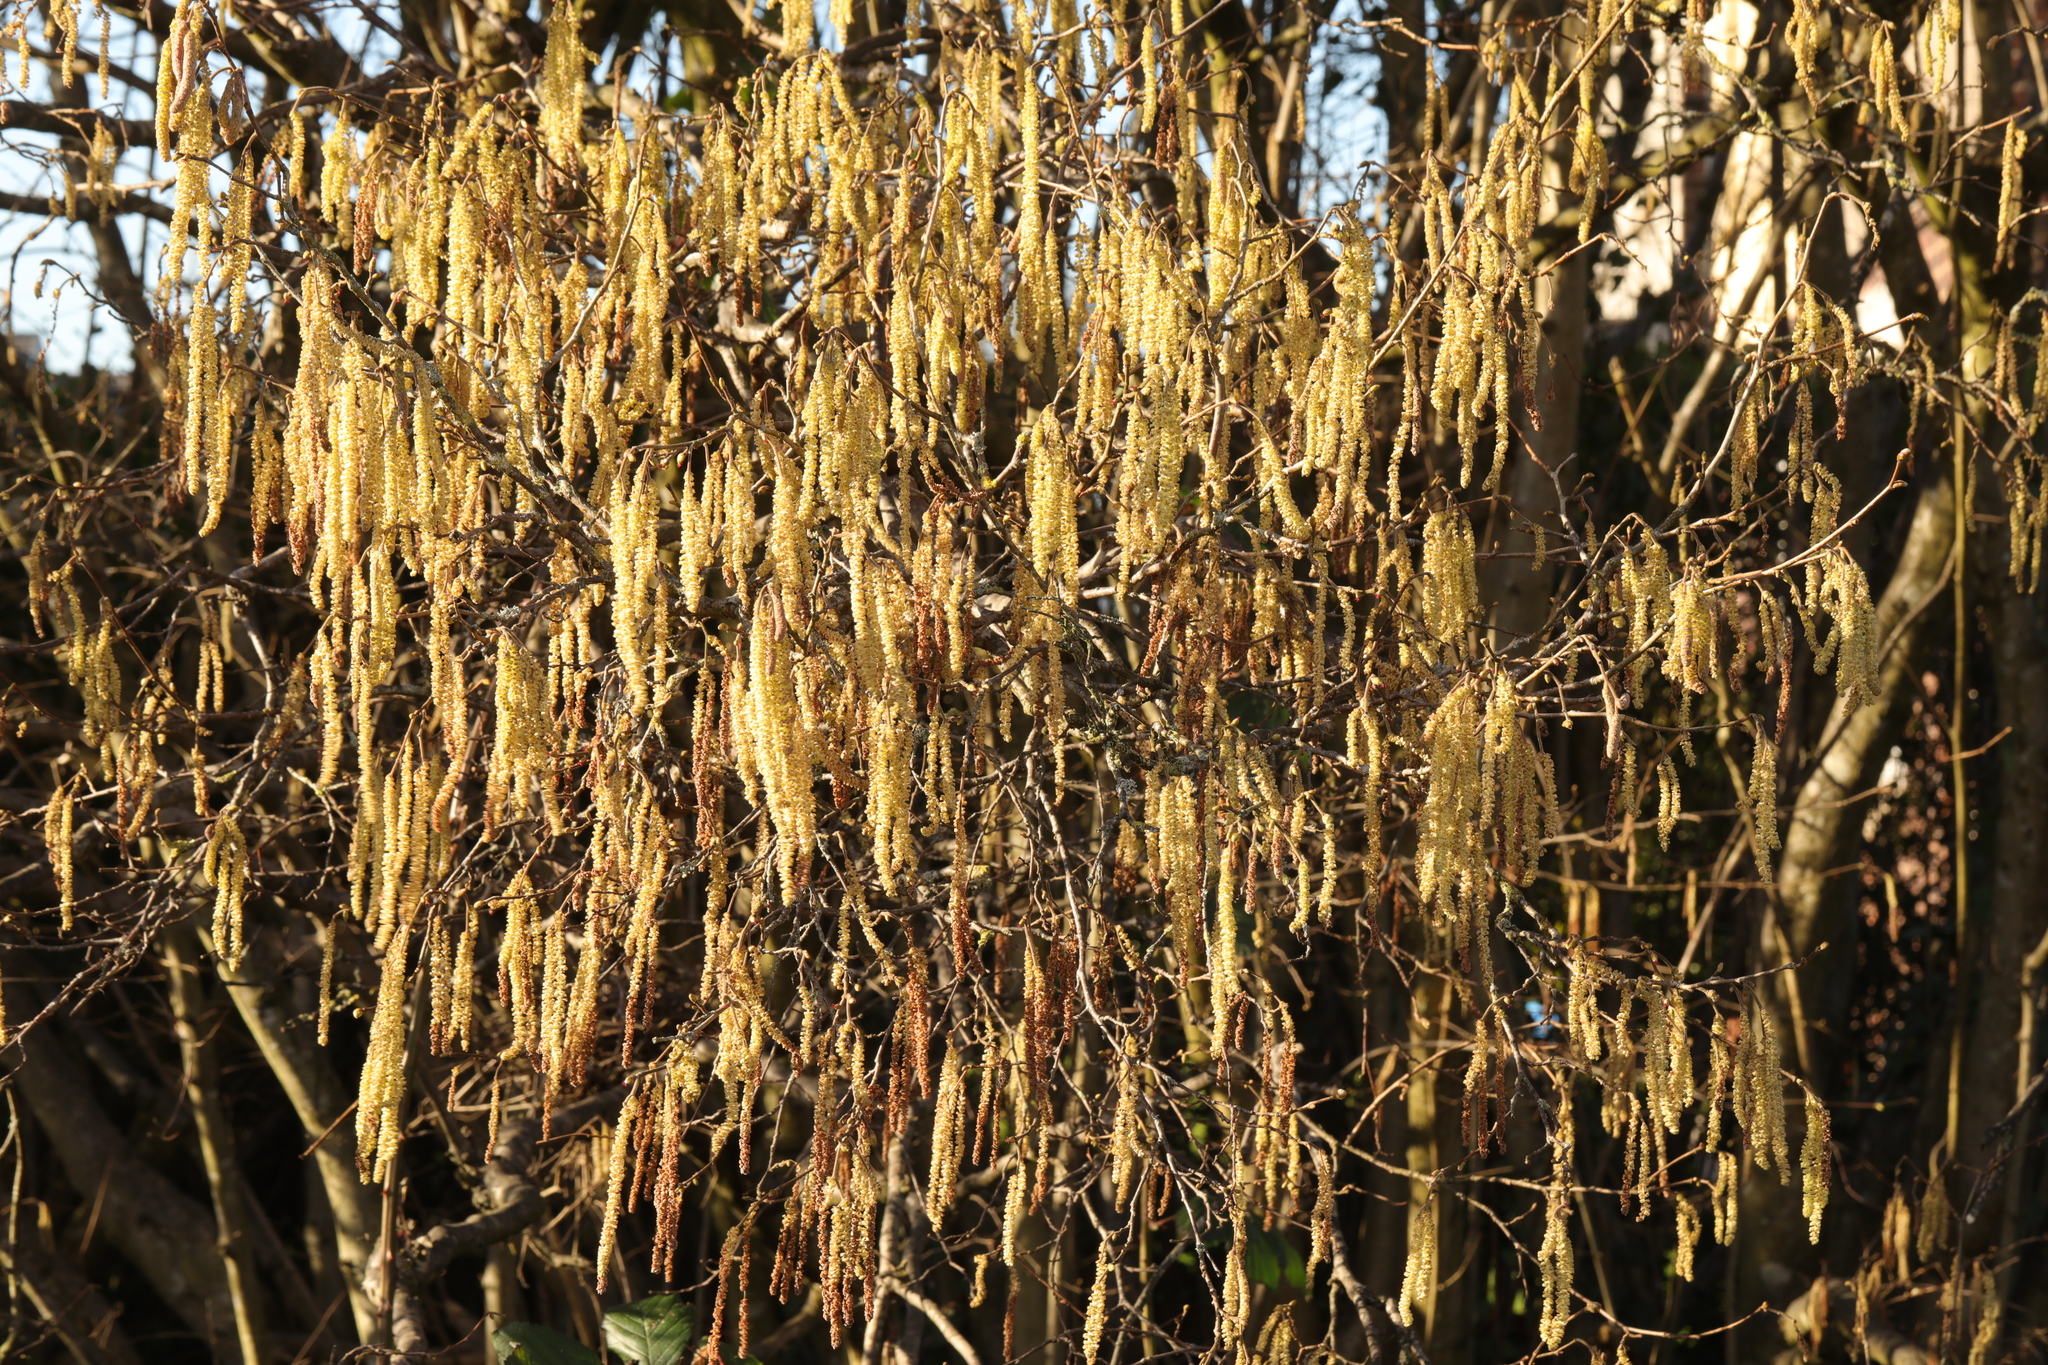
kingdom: Plantae
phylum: Tracheophyta
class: Magnoliopsida
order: Fagales
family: Betulaceae
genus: Corylus
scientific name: Corylus avellana
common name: European hazel
